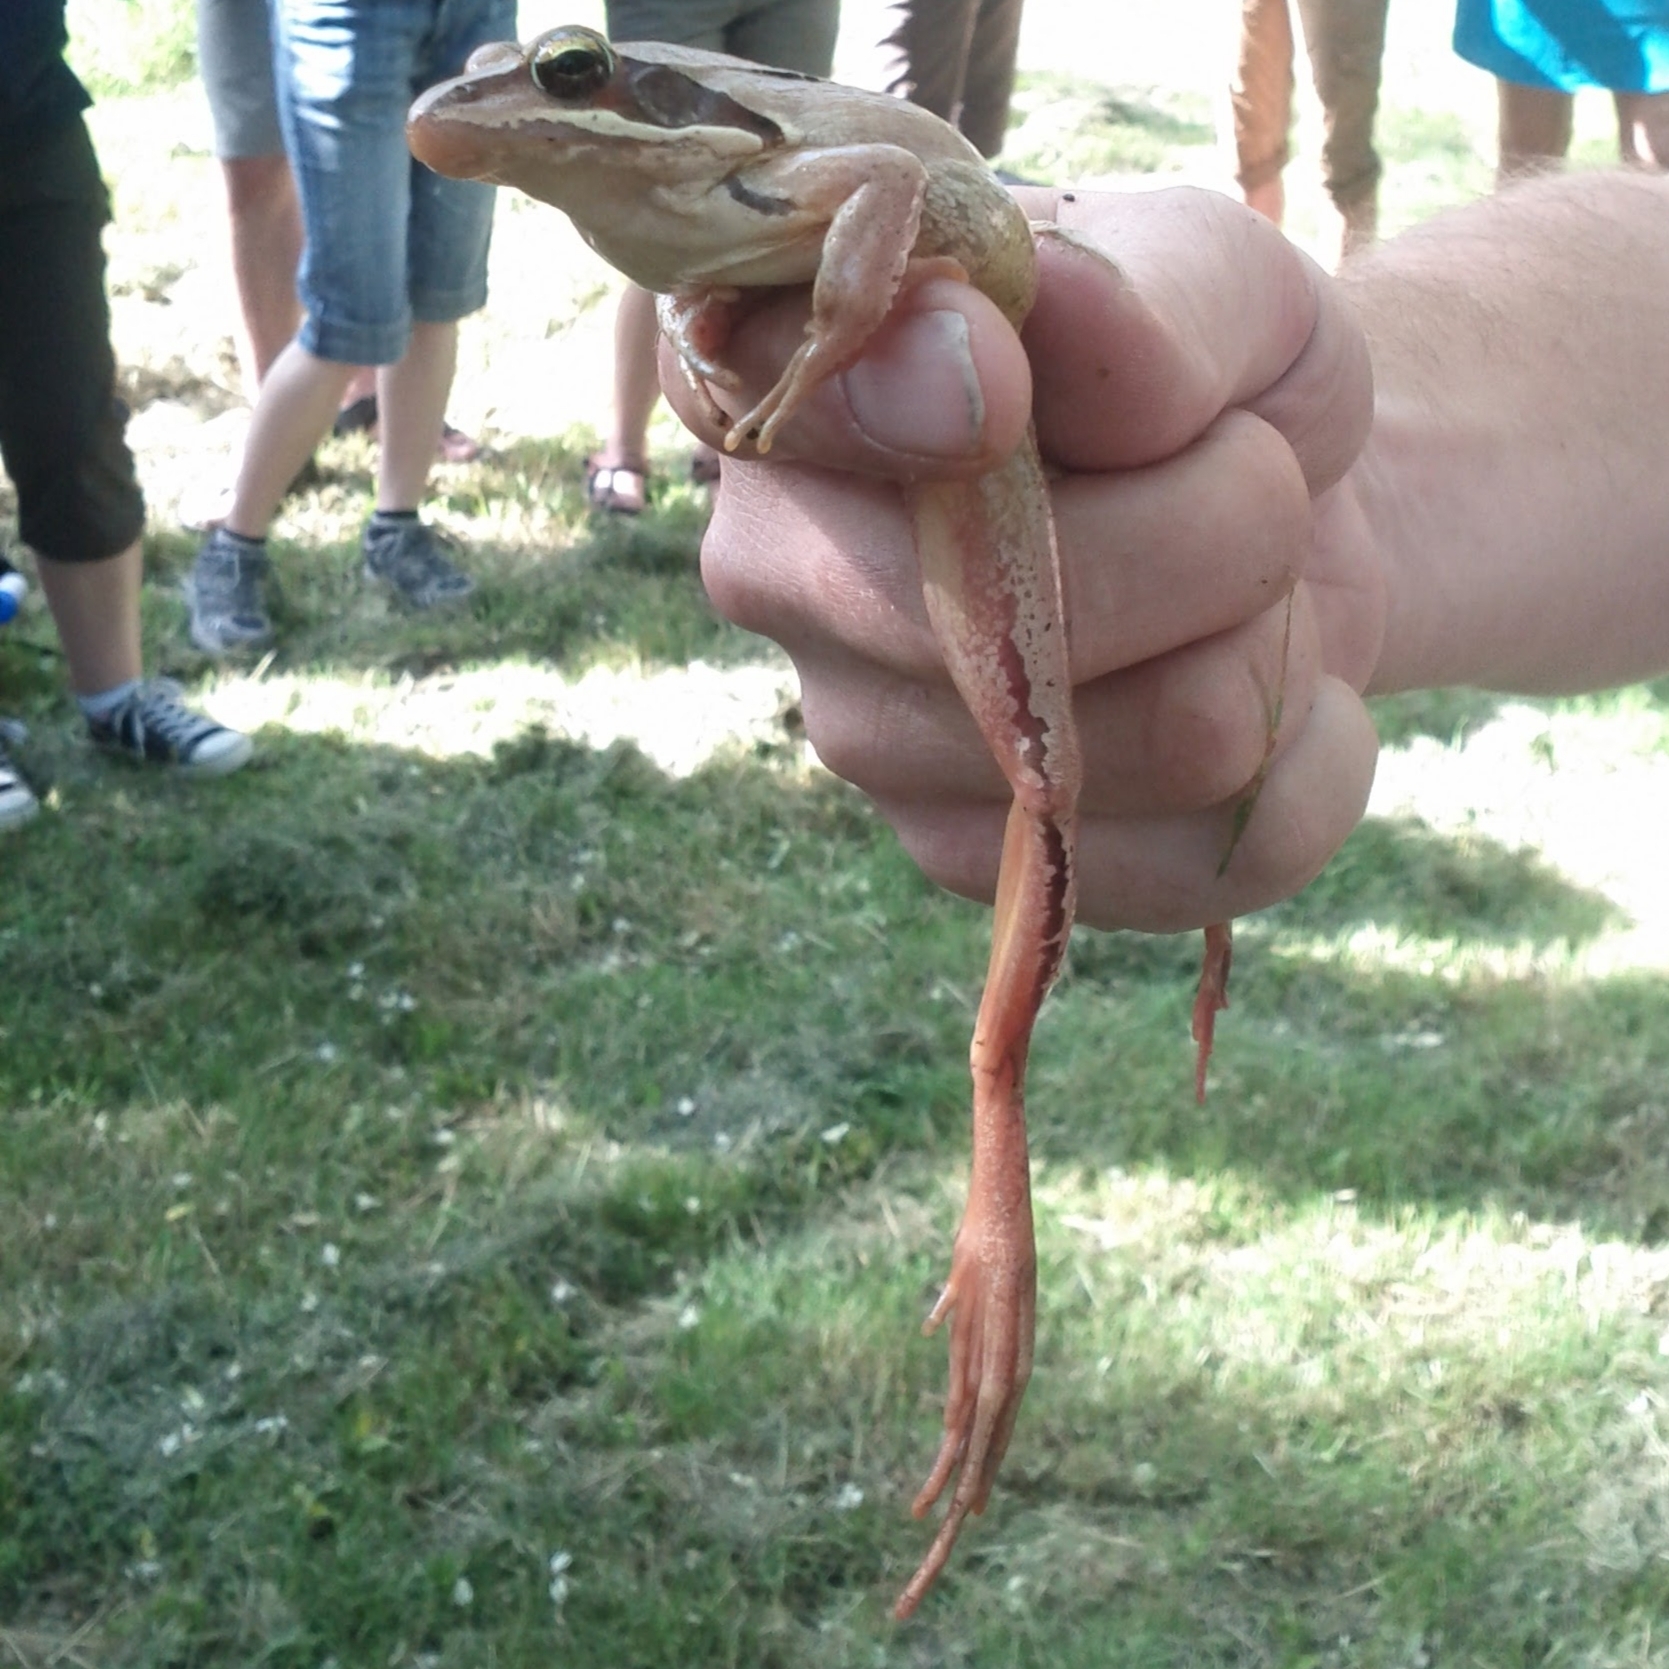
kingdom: Animalia
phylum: Chordata
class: Amphibia
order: Anura
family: Ranidae
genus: Rana
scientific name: Rana dalmatina
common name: Agile frog
